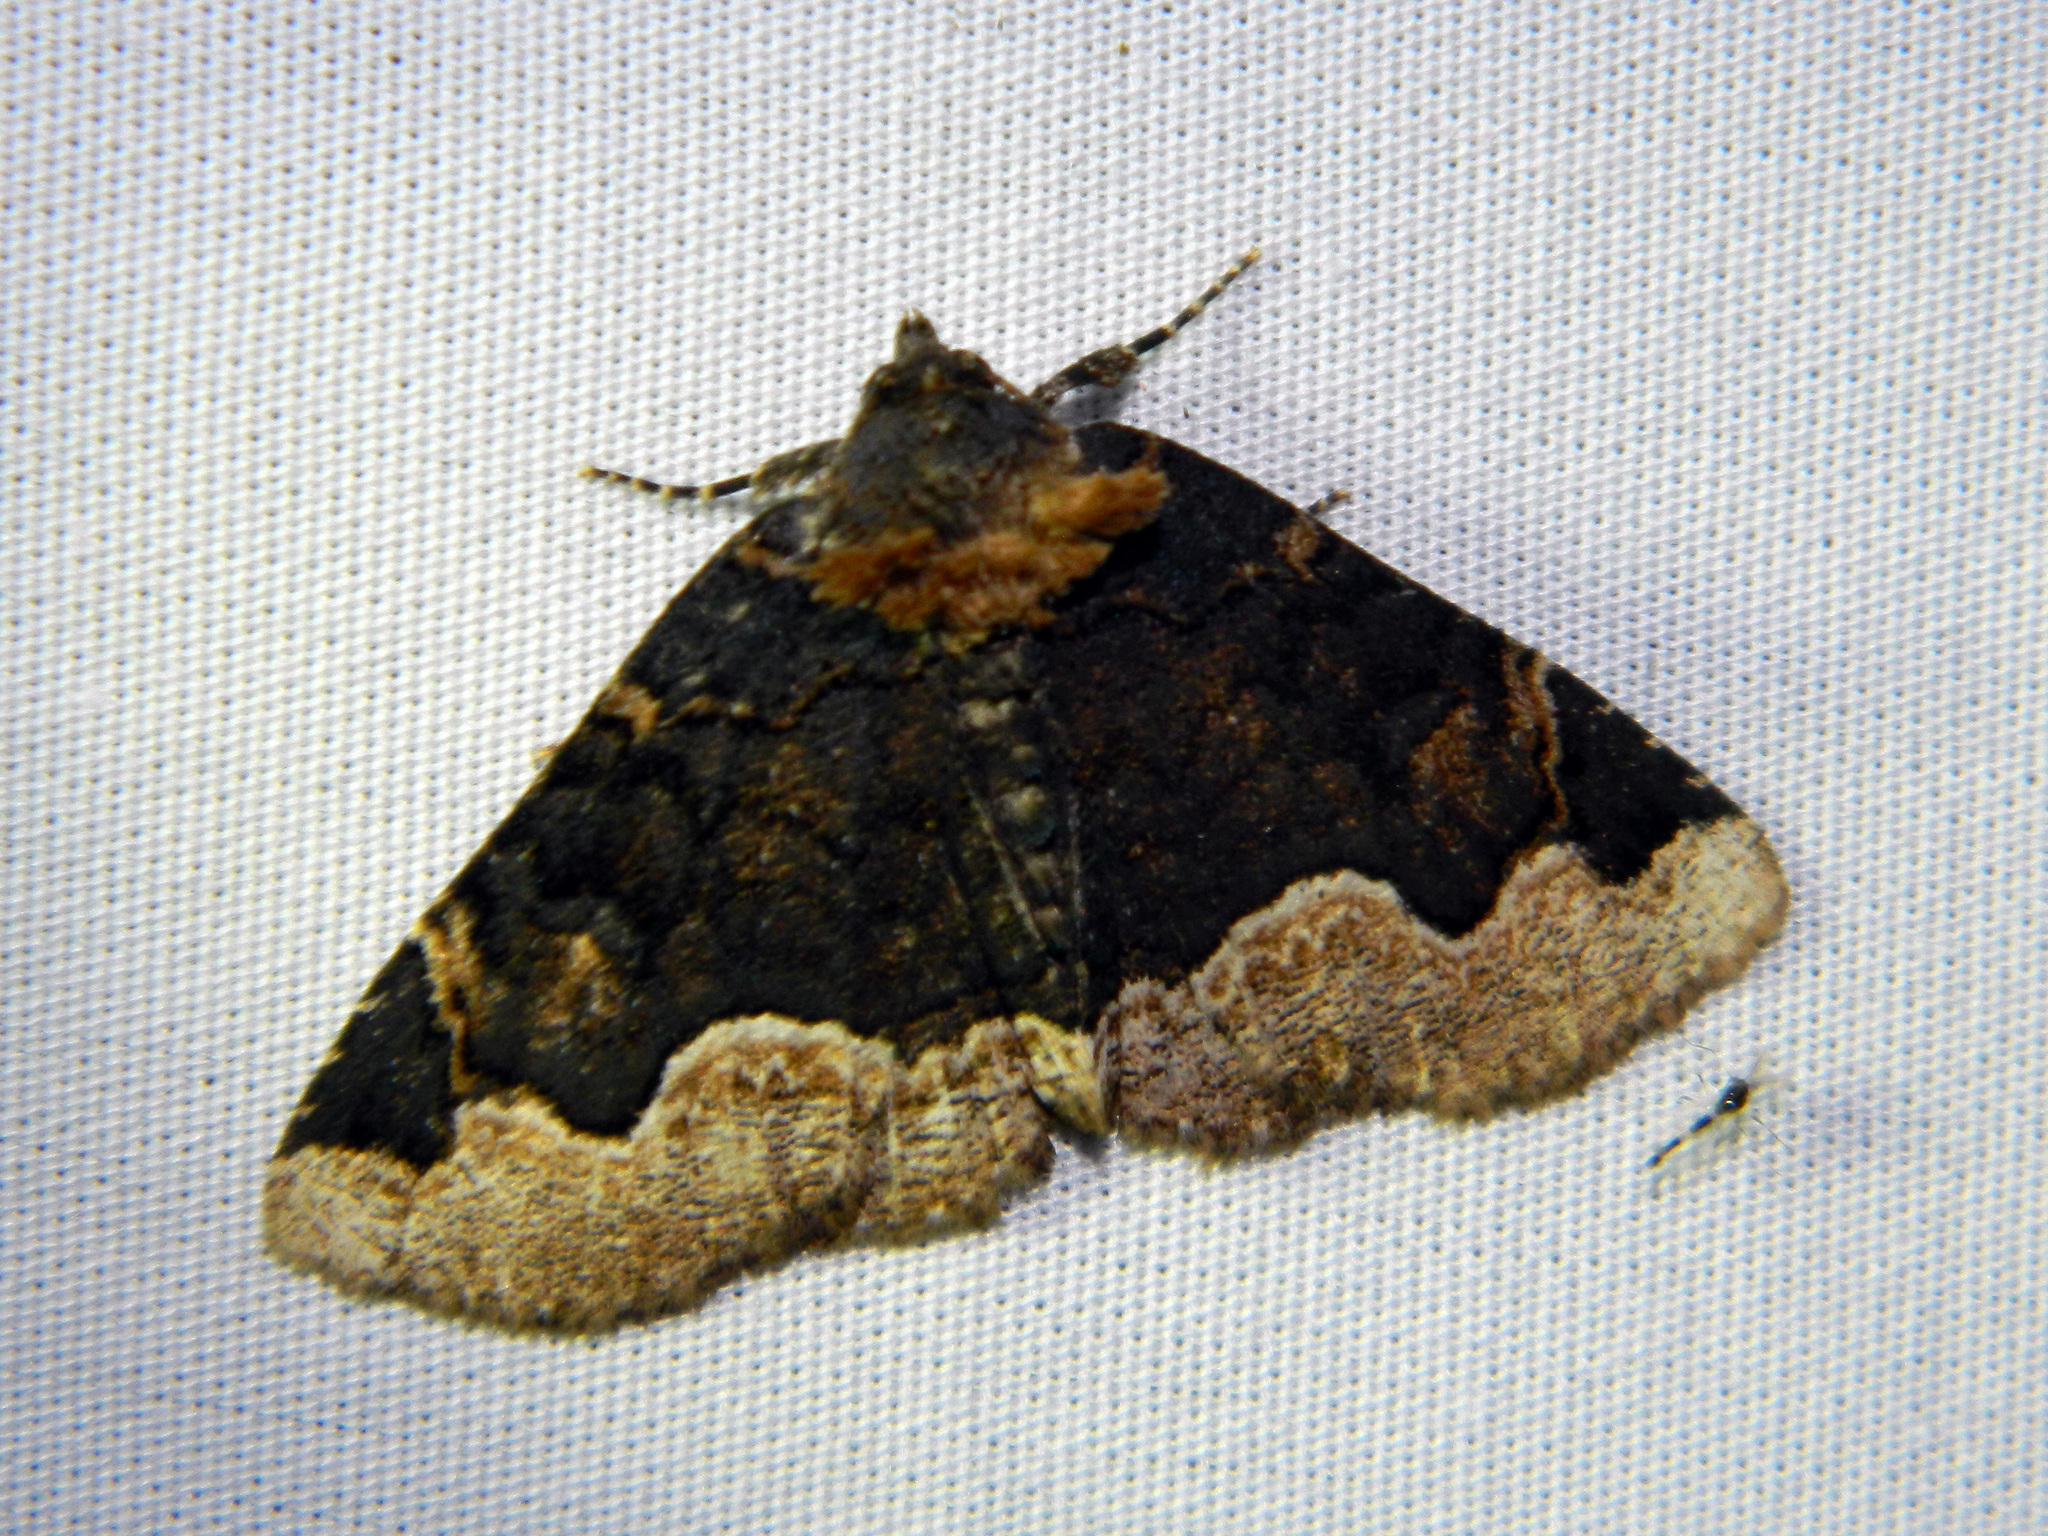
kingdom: Animalia
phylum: Arthropoda
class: Insecta
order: Lepidoptera
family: Erebidae
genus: Zale
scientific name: Zale horrida
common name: Horrid zale moth
